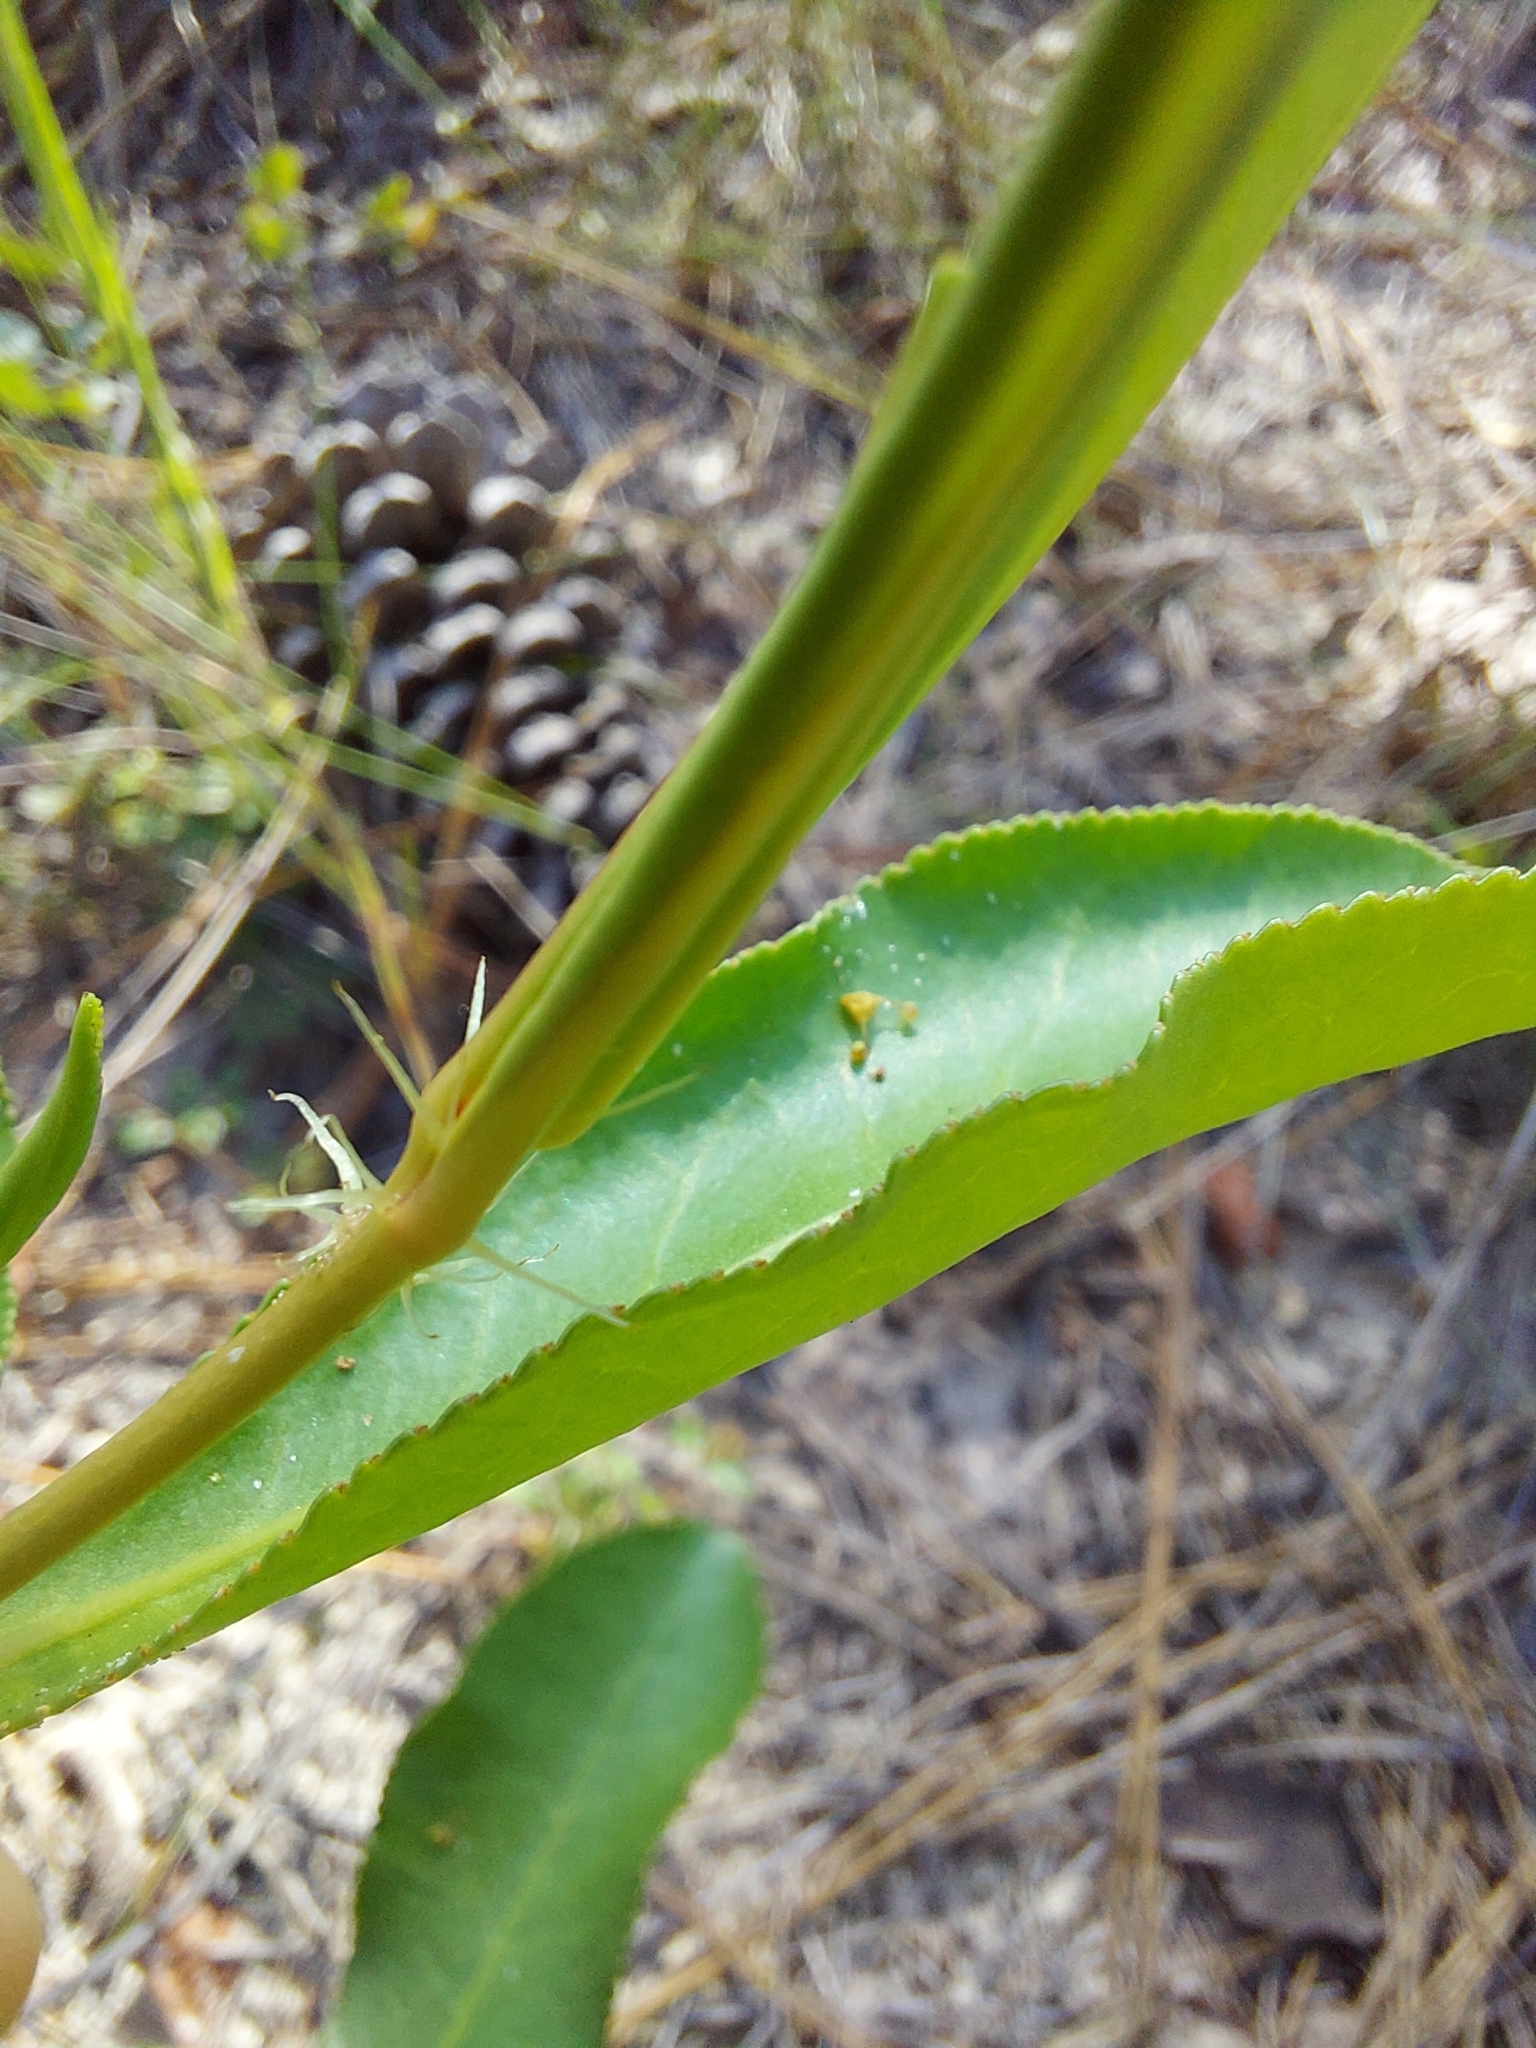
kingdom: Plantae
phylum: Tracheophyta
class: Magnoliopsida
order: Malpighiales
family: Euphorbiaceae
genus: Stillingia
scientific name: Stillingia sylvatica
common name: Queen's-delight
